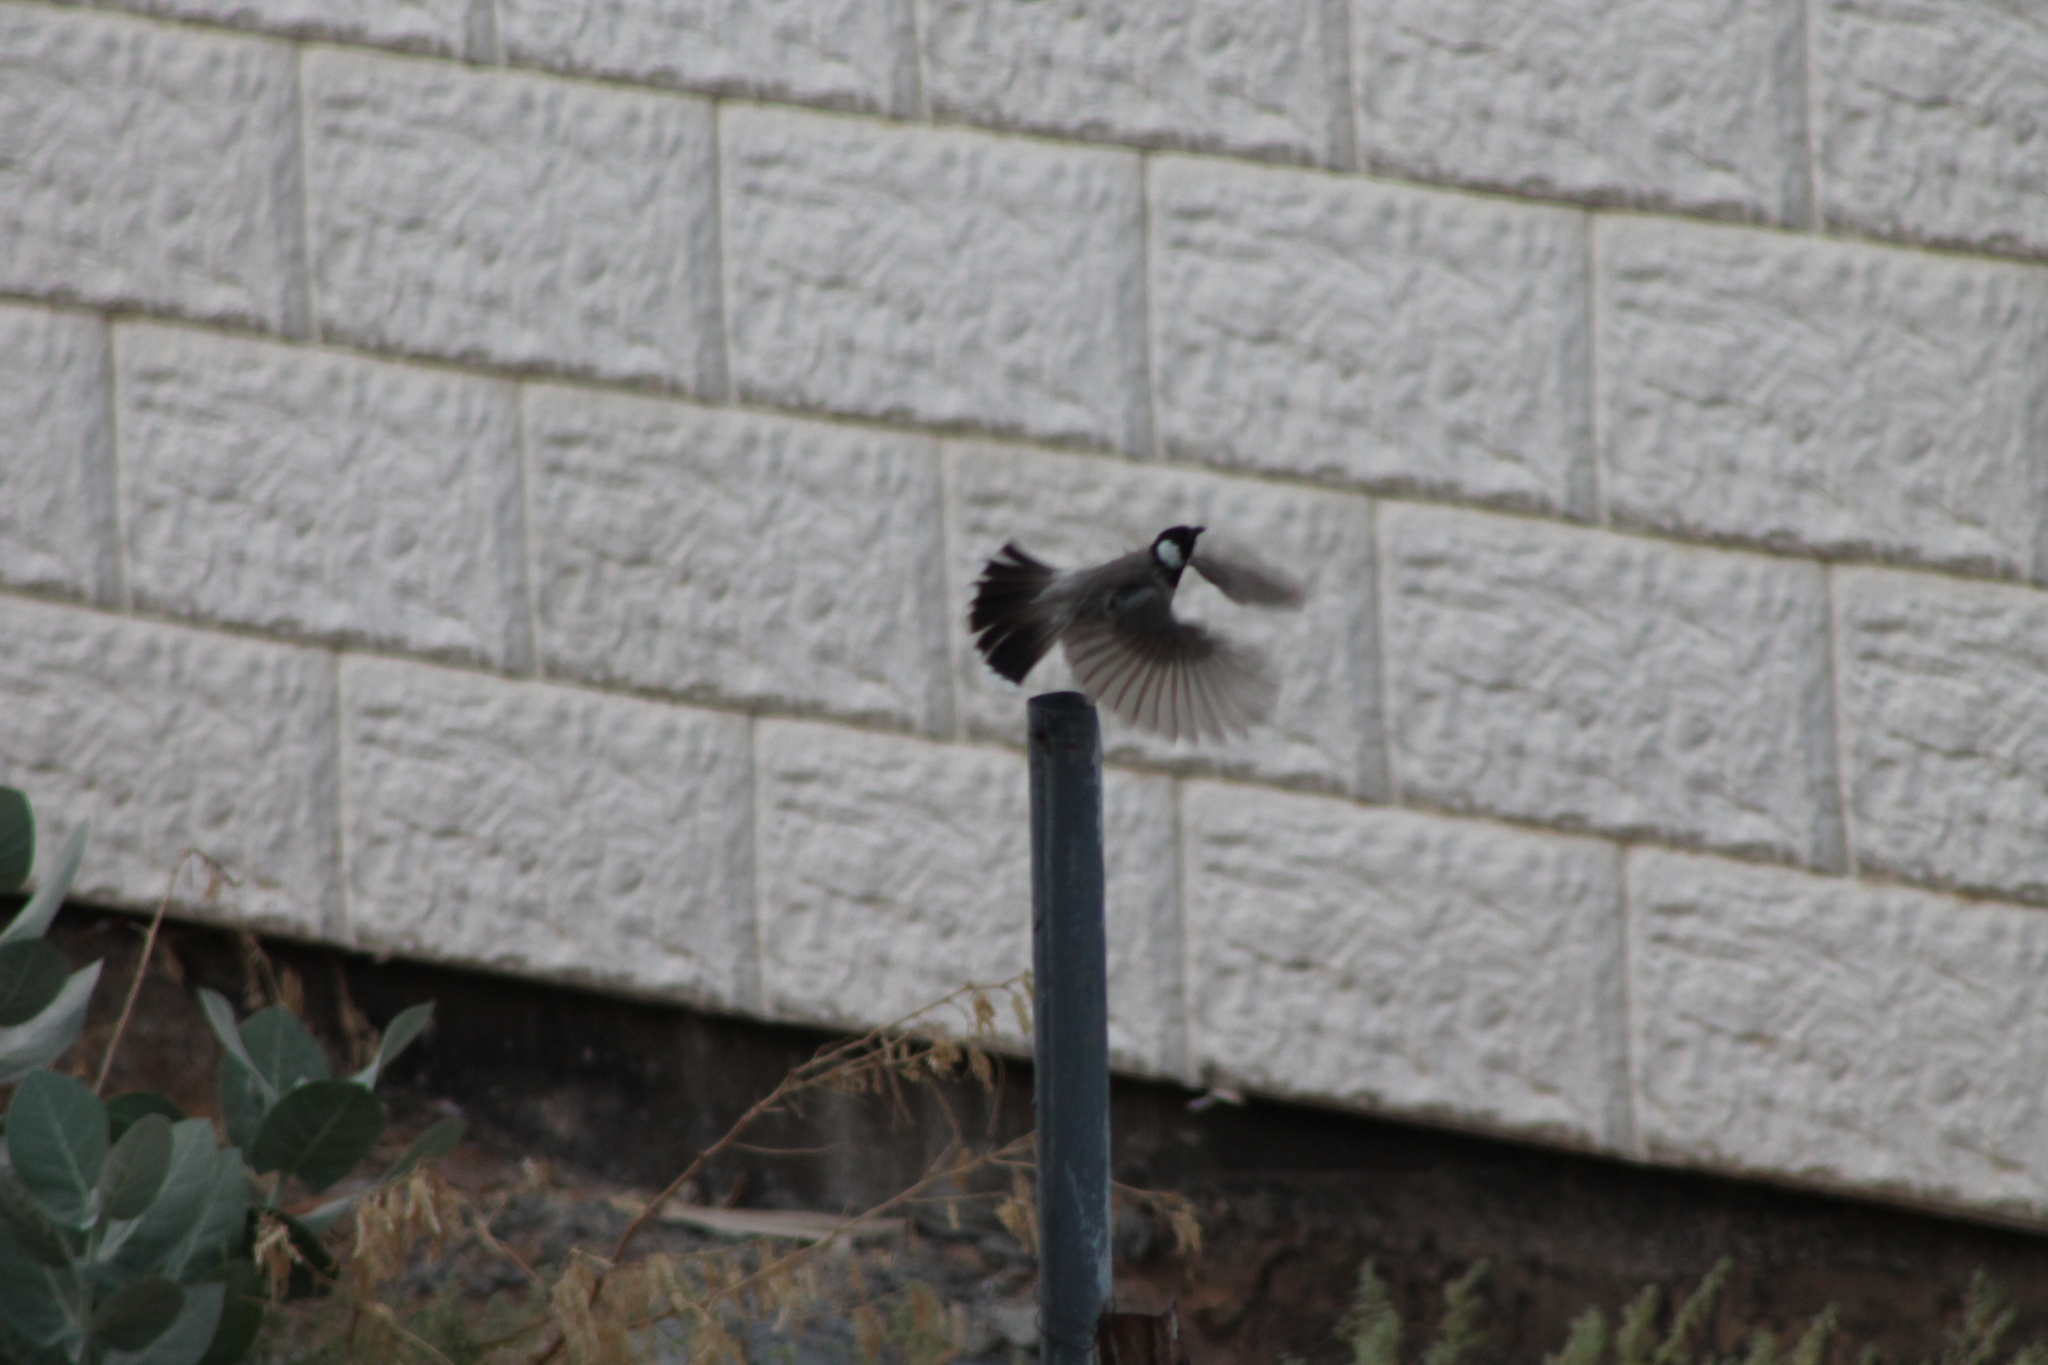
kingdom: Animalia
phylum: Chordata
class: Aves
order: Passeriformes
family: Pycnonotidae
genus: Pycnonotus
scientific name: Pycnonotus leucotis
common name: White-eared bulbul
